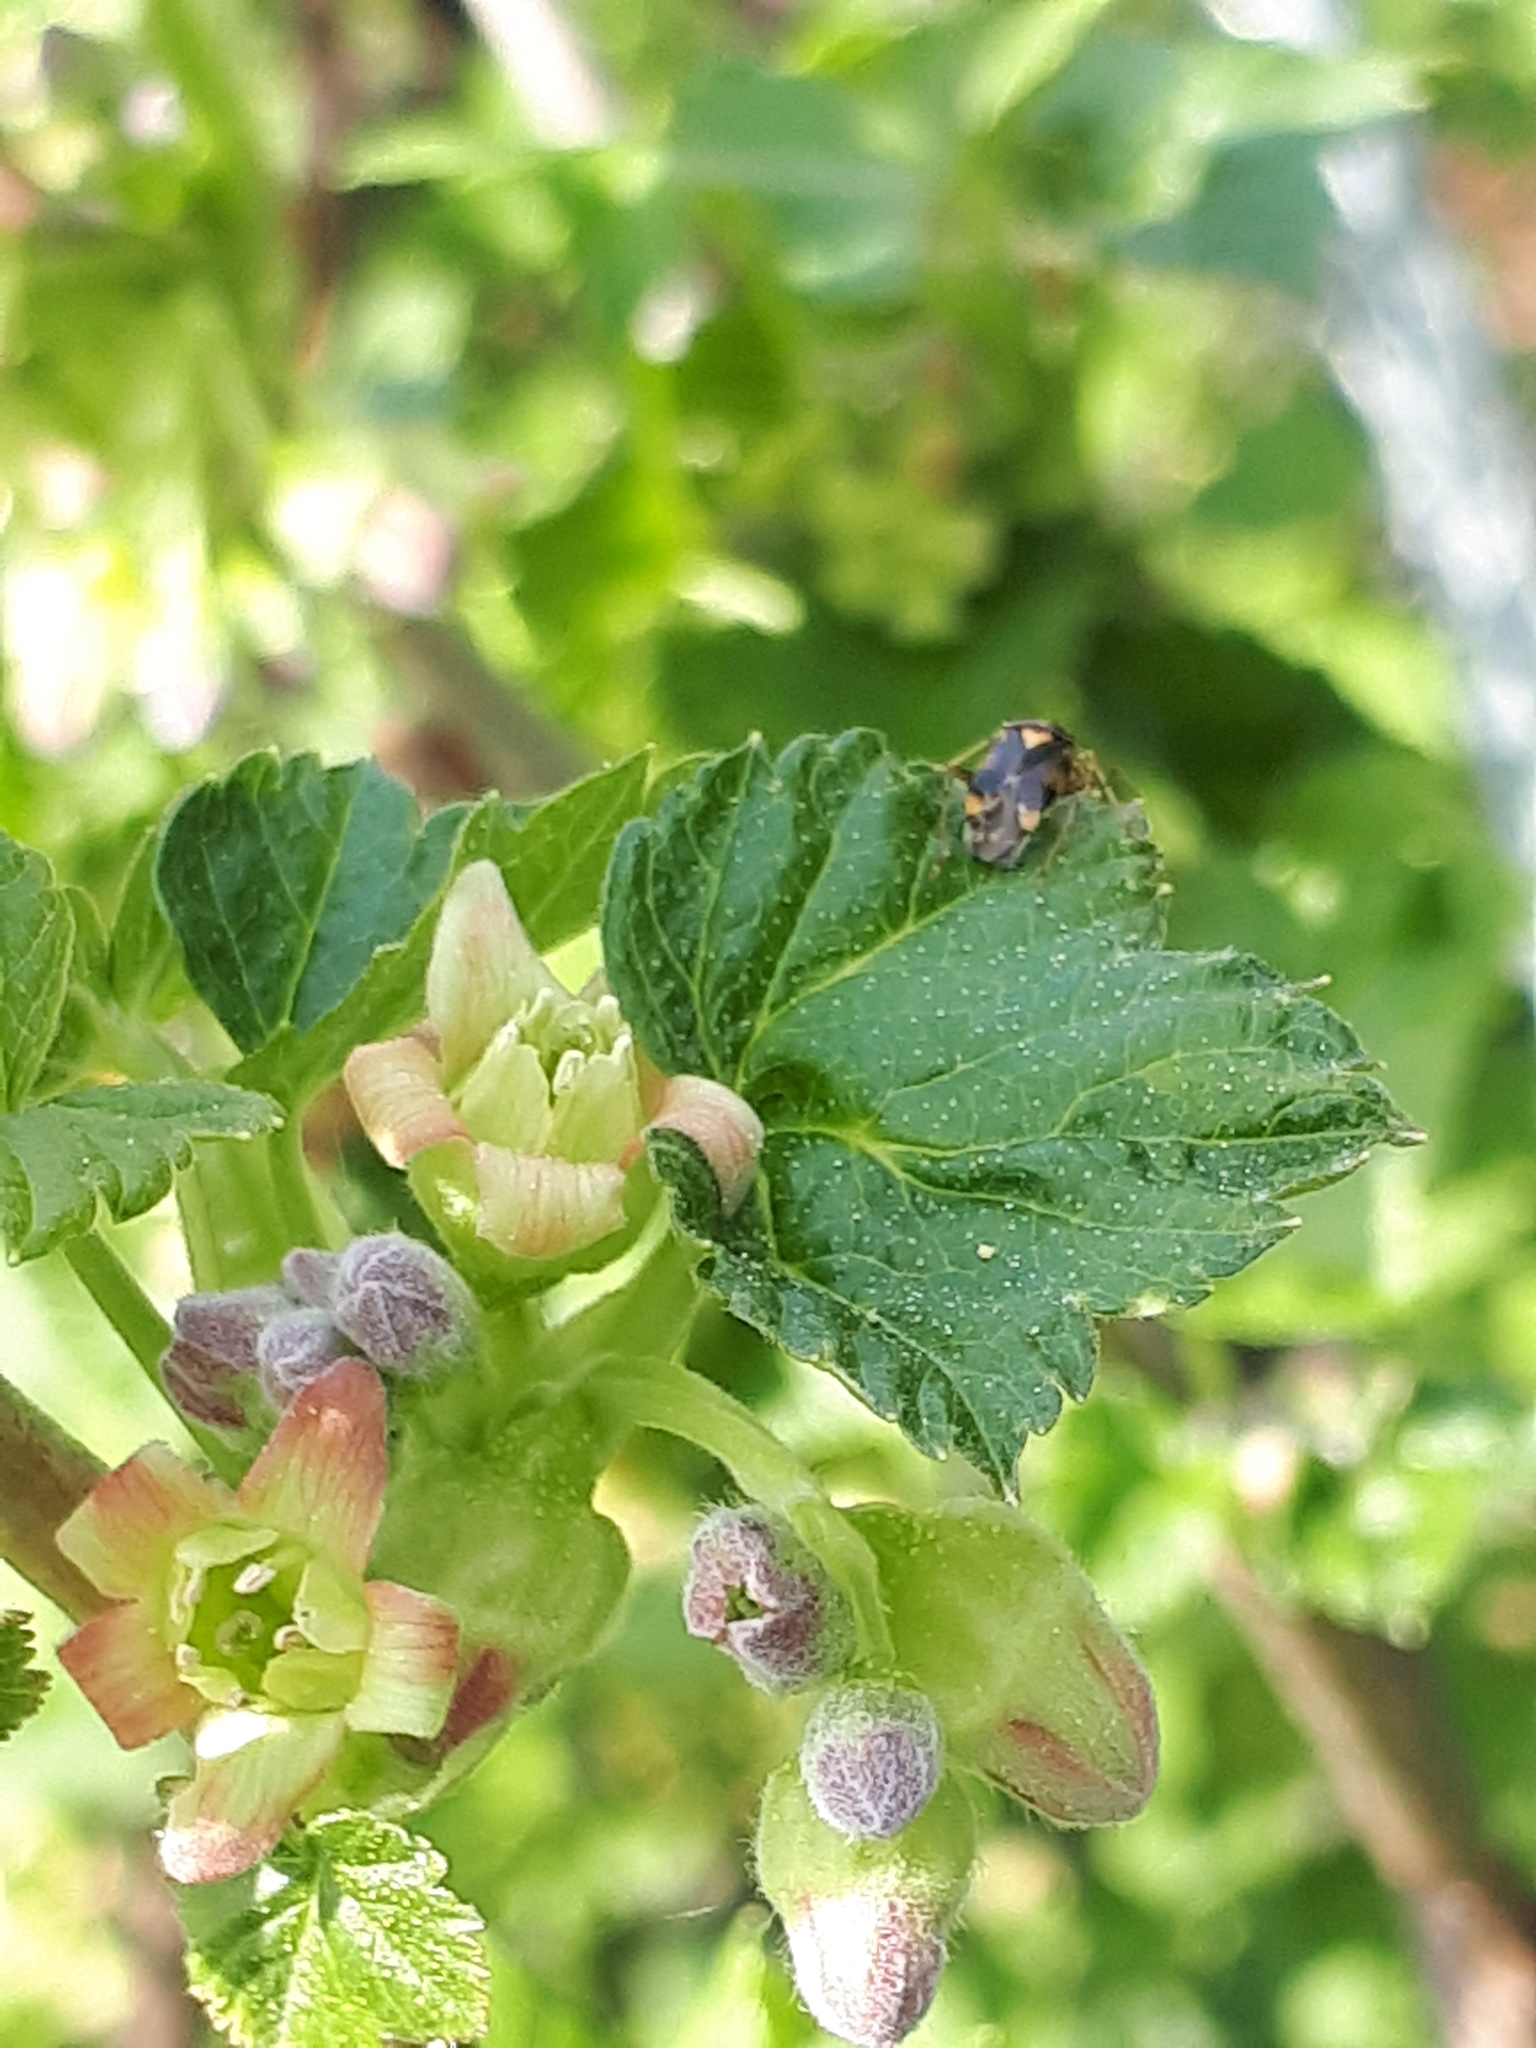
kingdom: Animalia
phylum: Arthropoda
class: Insecta
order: Hemiptera
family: Miridae
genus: Liocoris
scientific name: Liocoris tripustulatus
